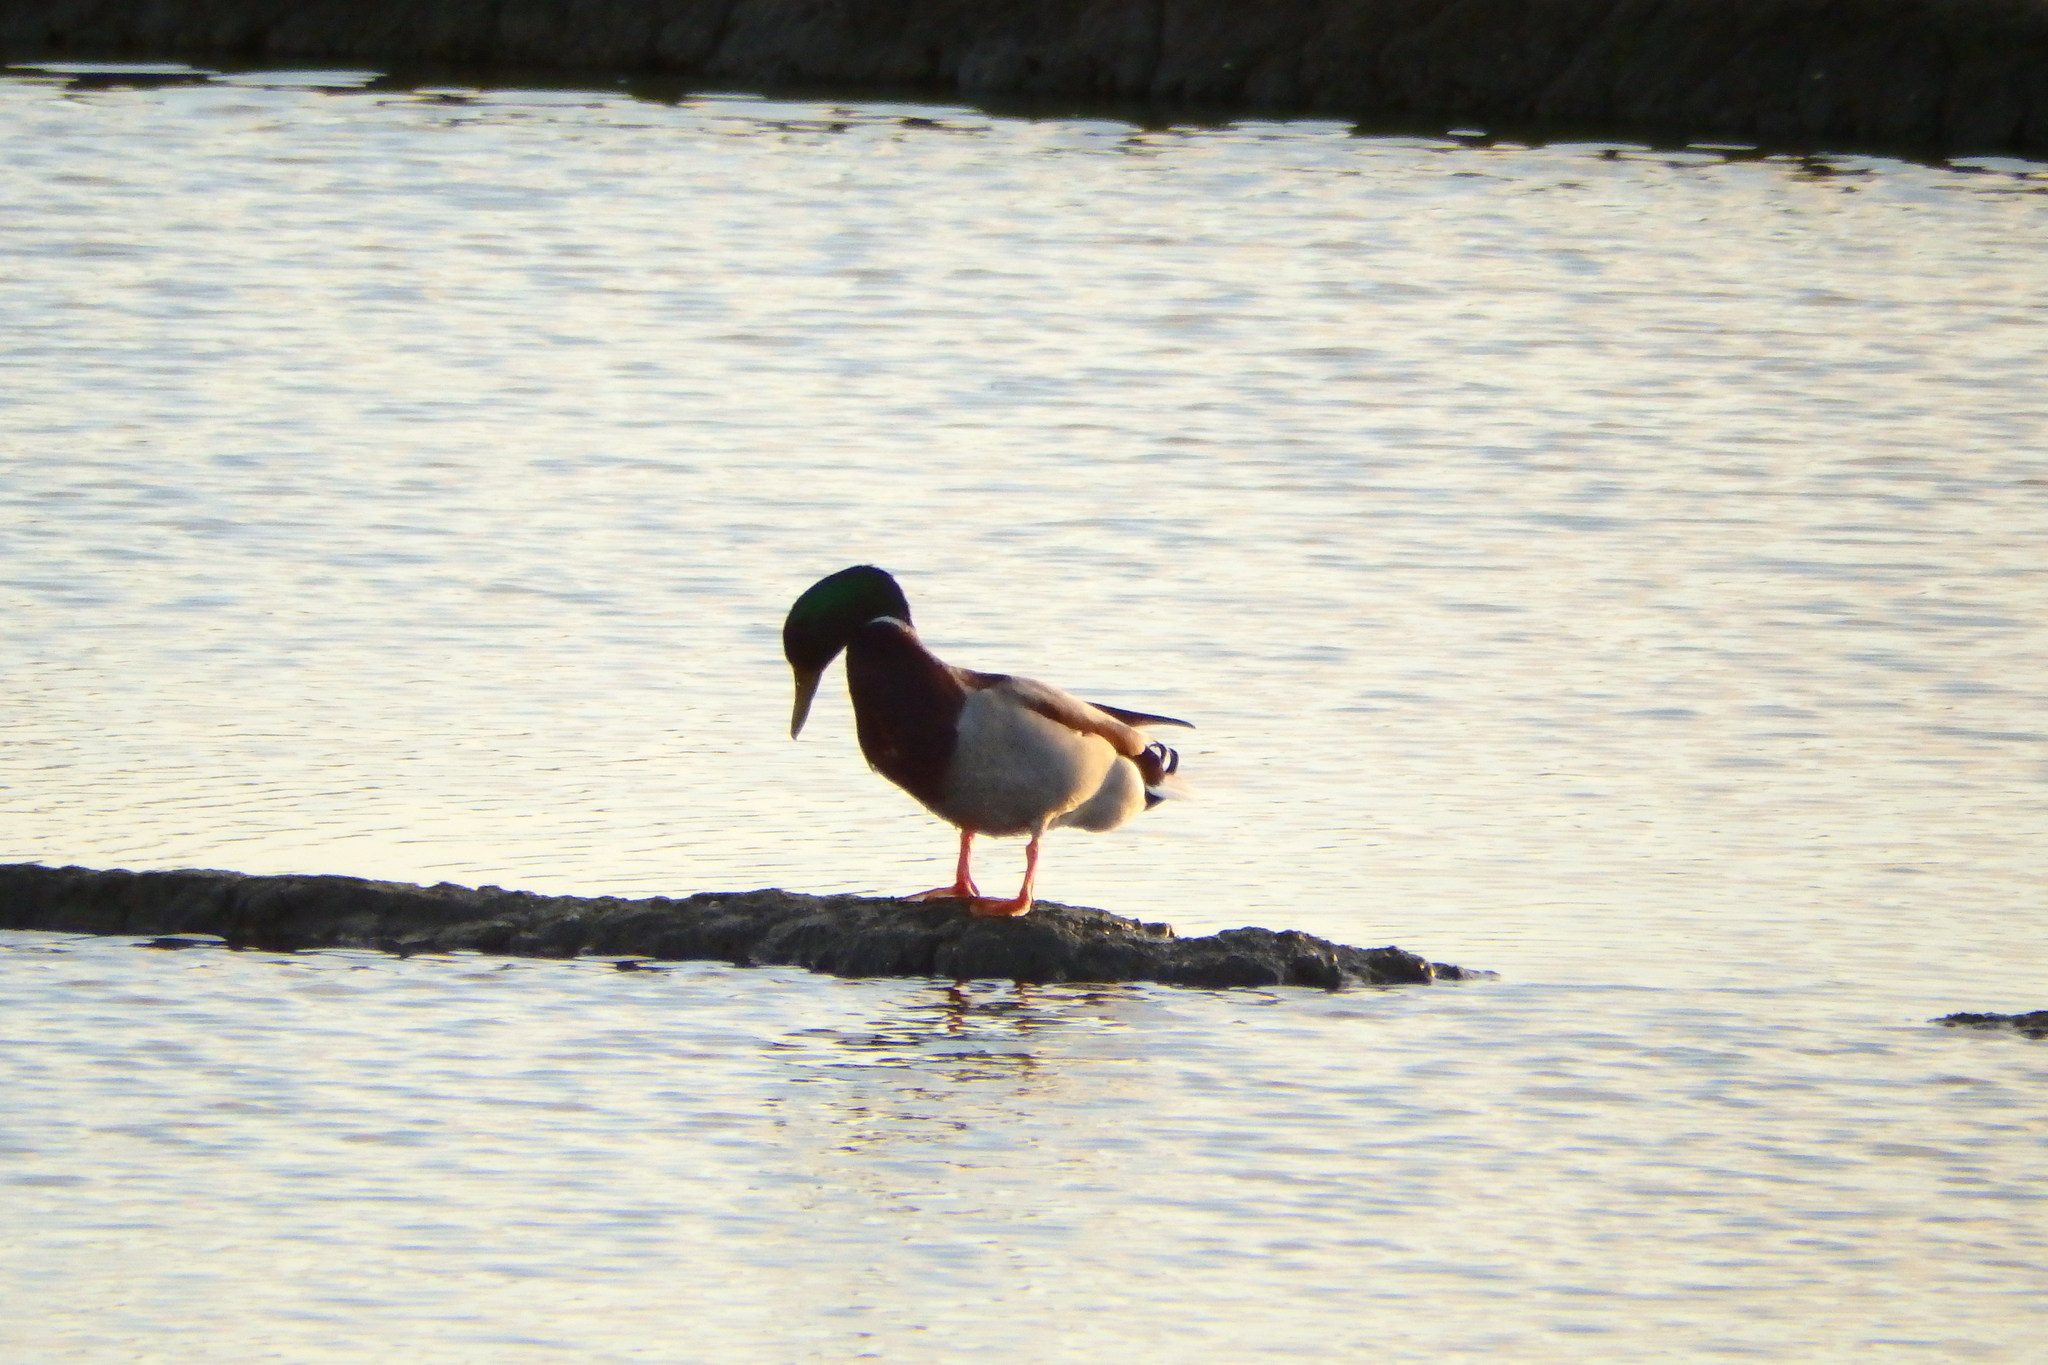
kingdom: Animalia
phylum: Chordata
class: Aves
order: Anseriformes
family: Anatidae
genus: Anas
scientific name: Anas platyrhynchos
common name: Mallard
